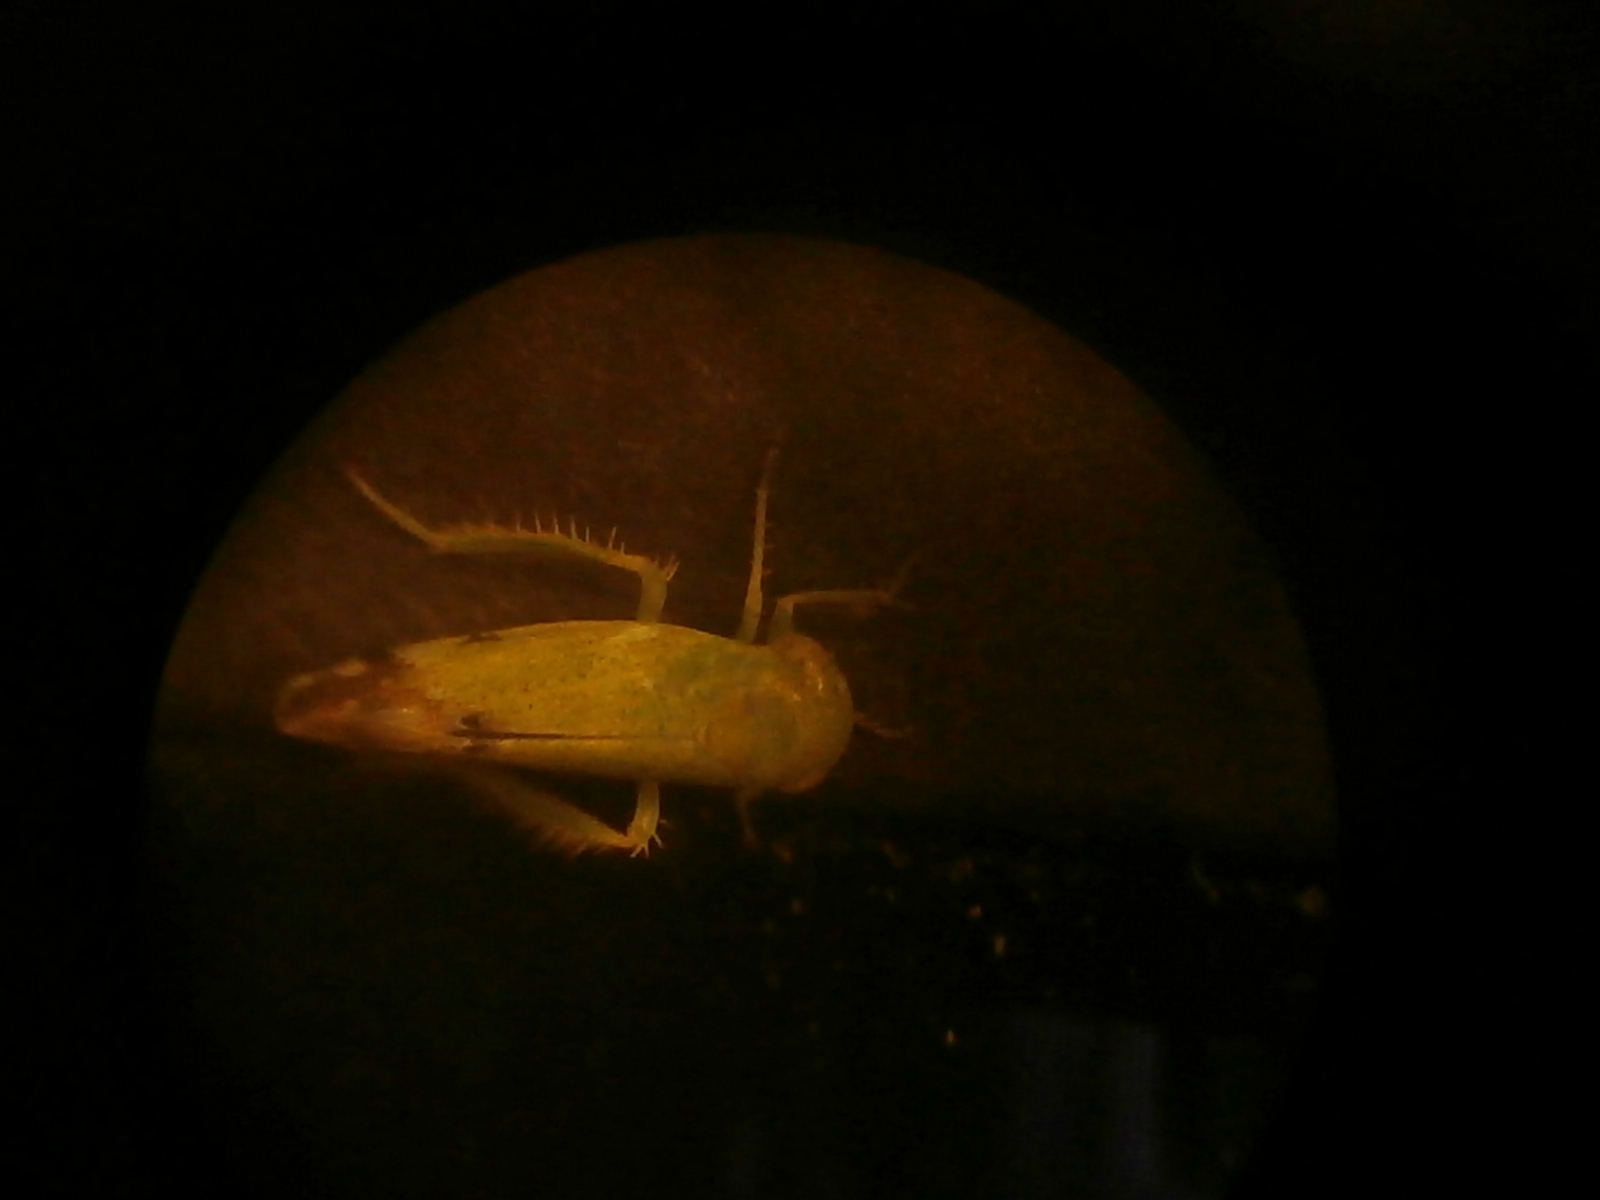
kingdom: Animalia
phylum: Arthropoda
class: Insecta
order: Hemiptera
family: Cicadellidae
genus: Opsius
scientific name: Opsius stactogalus
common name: Leafhopper
